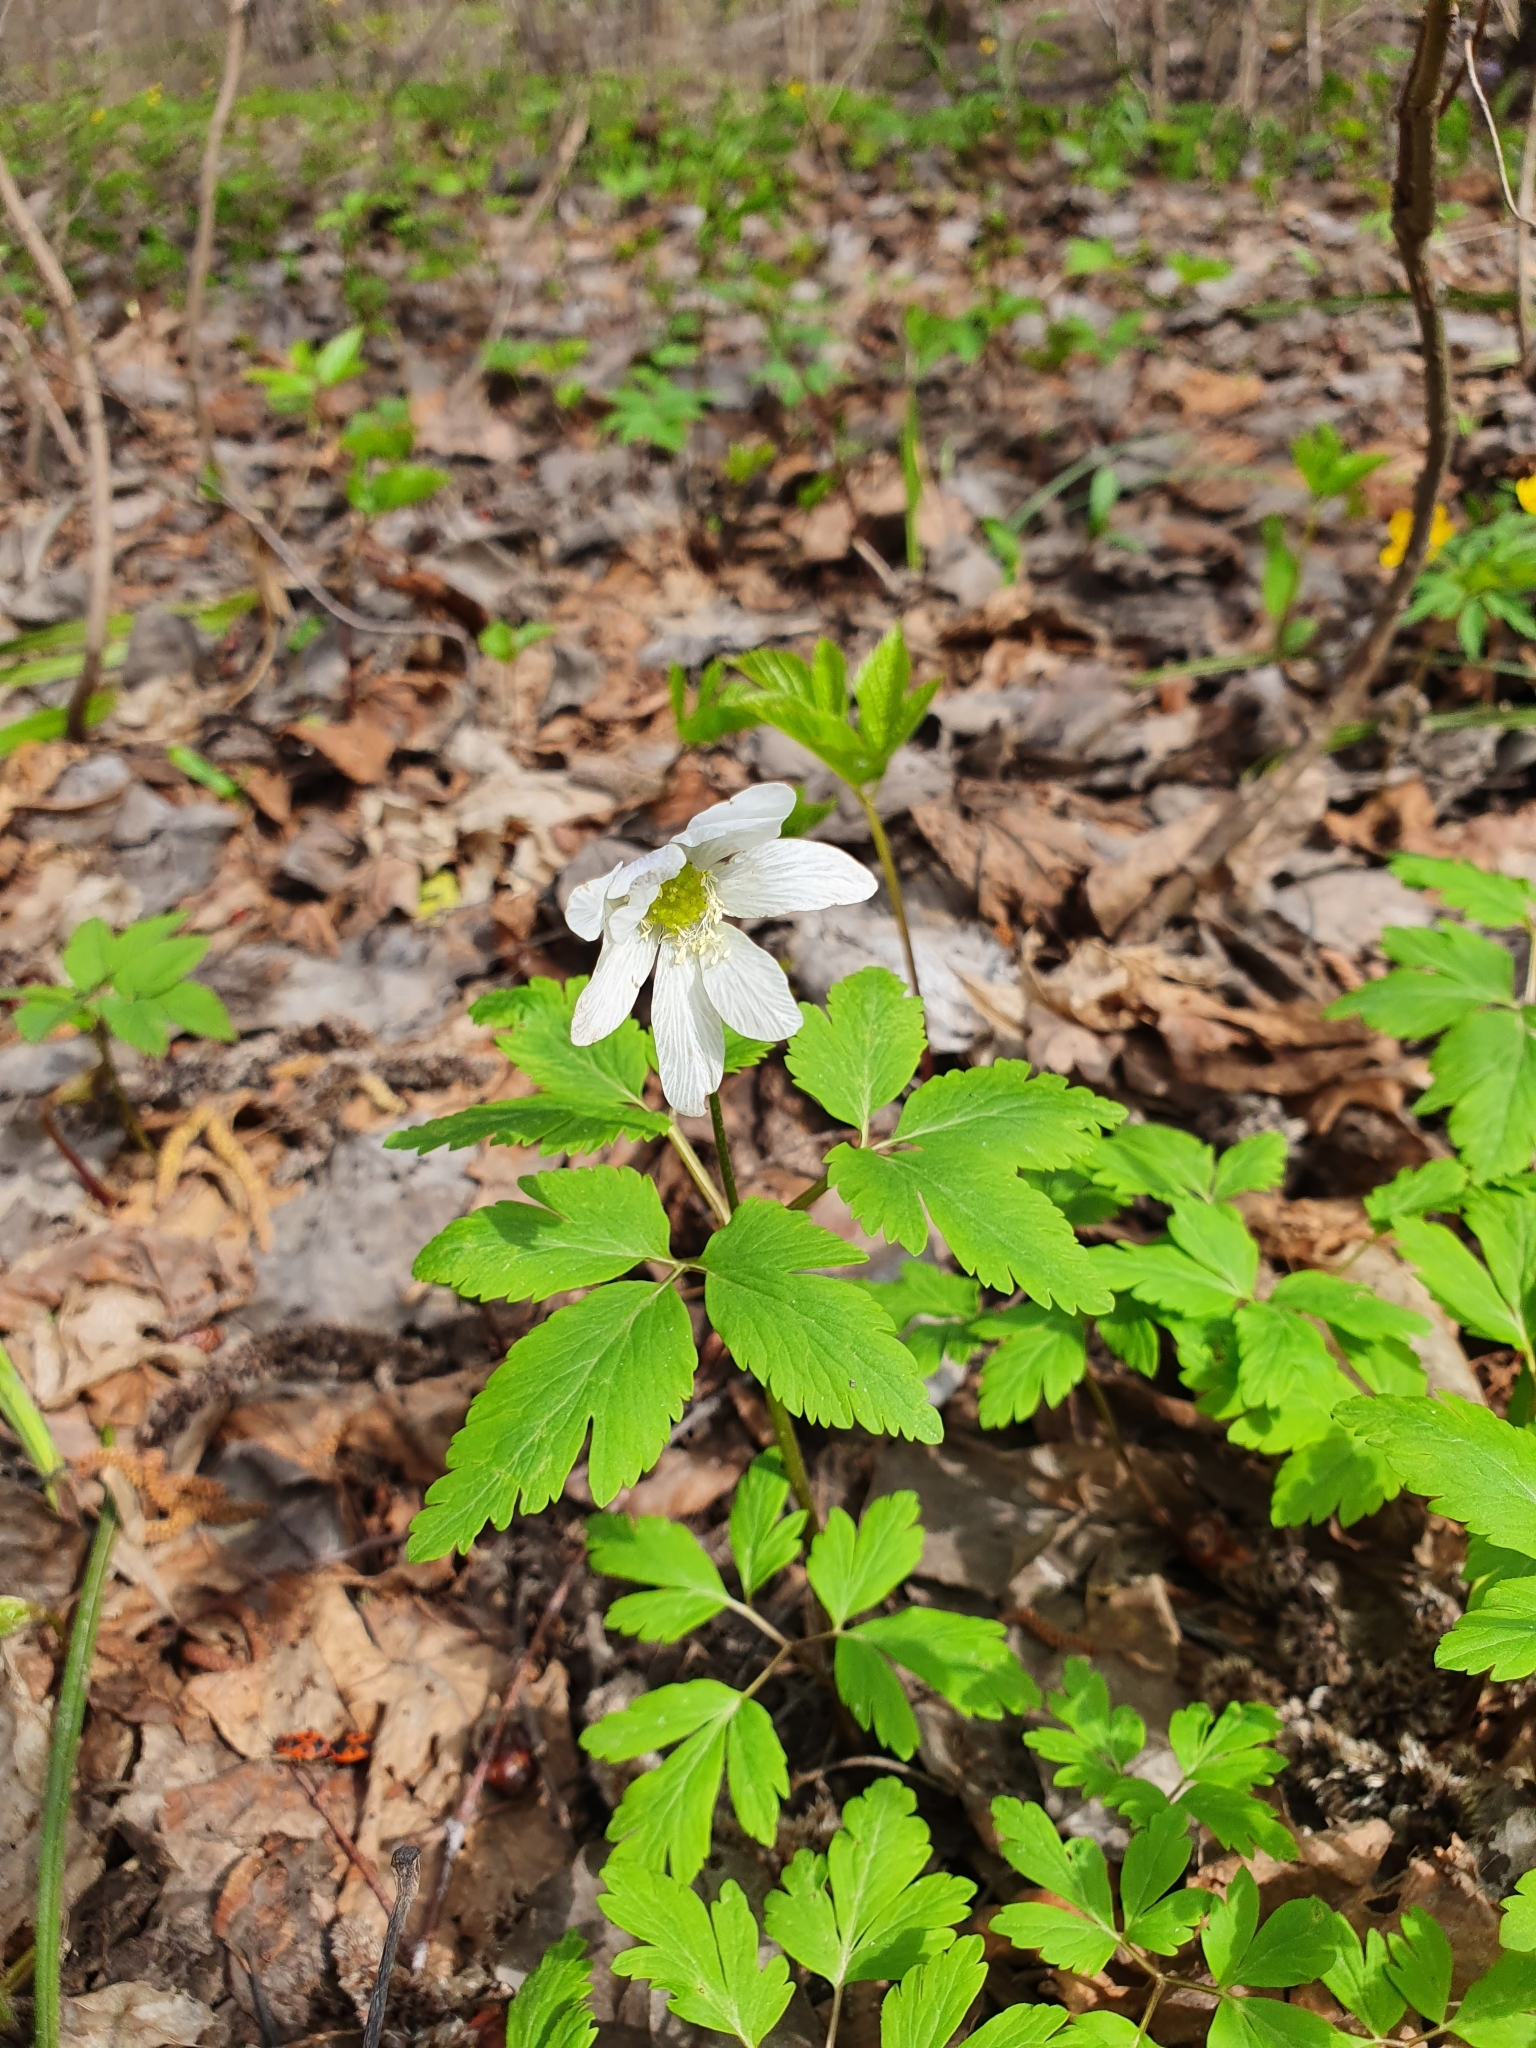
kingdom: Plantae
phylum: Tracheophyta
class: Magnoliopsida
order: Ranunculales
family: Ranunculaceae
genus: Anemone
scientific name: Anemone altaica
